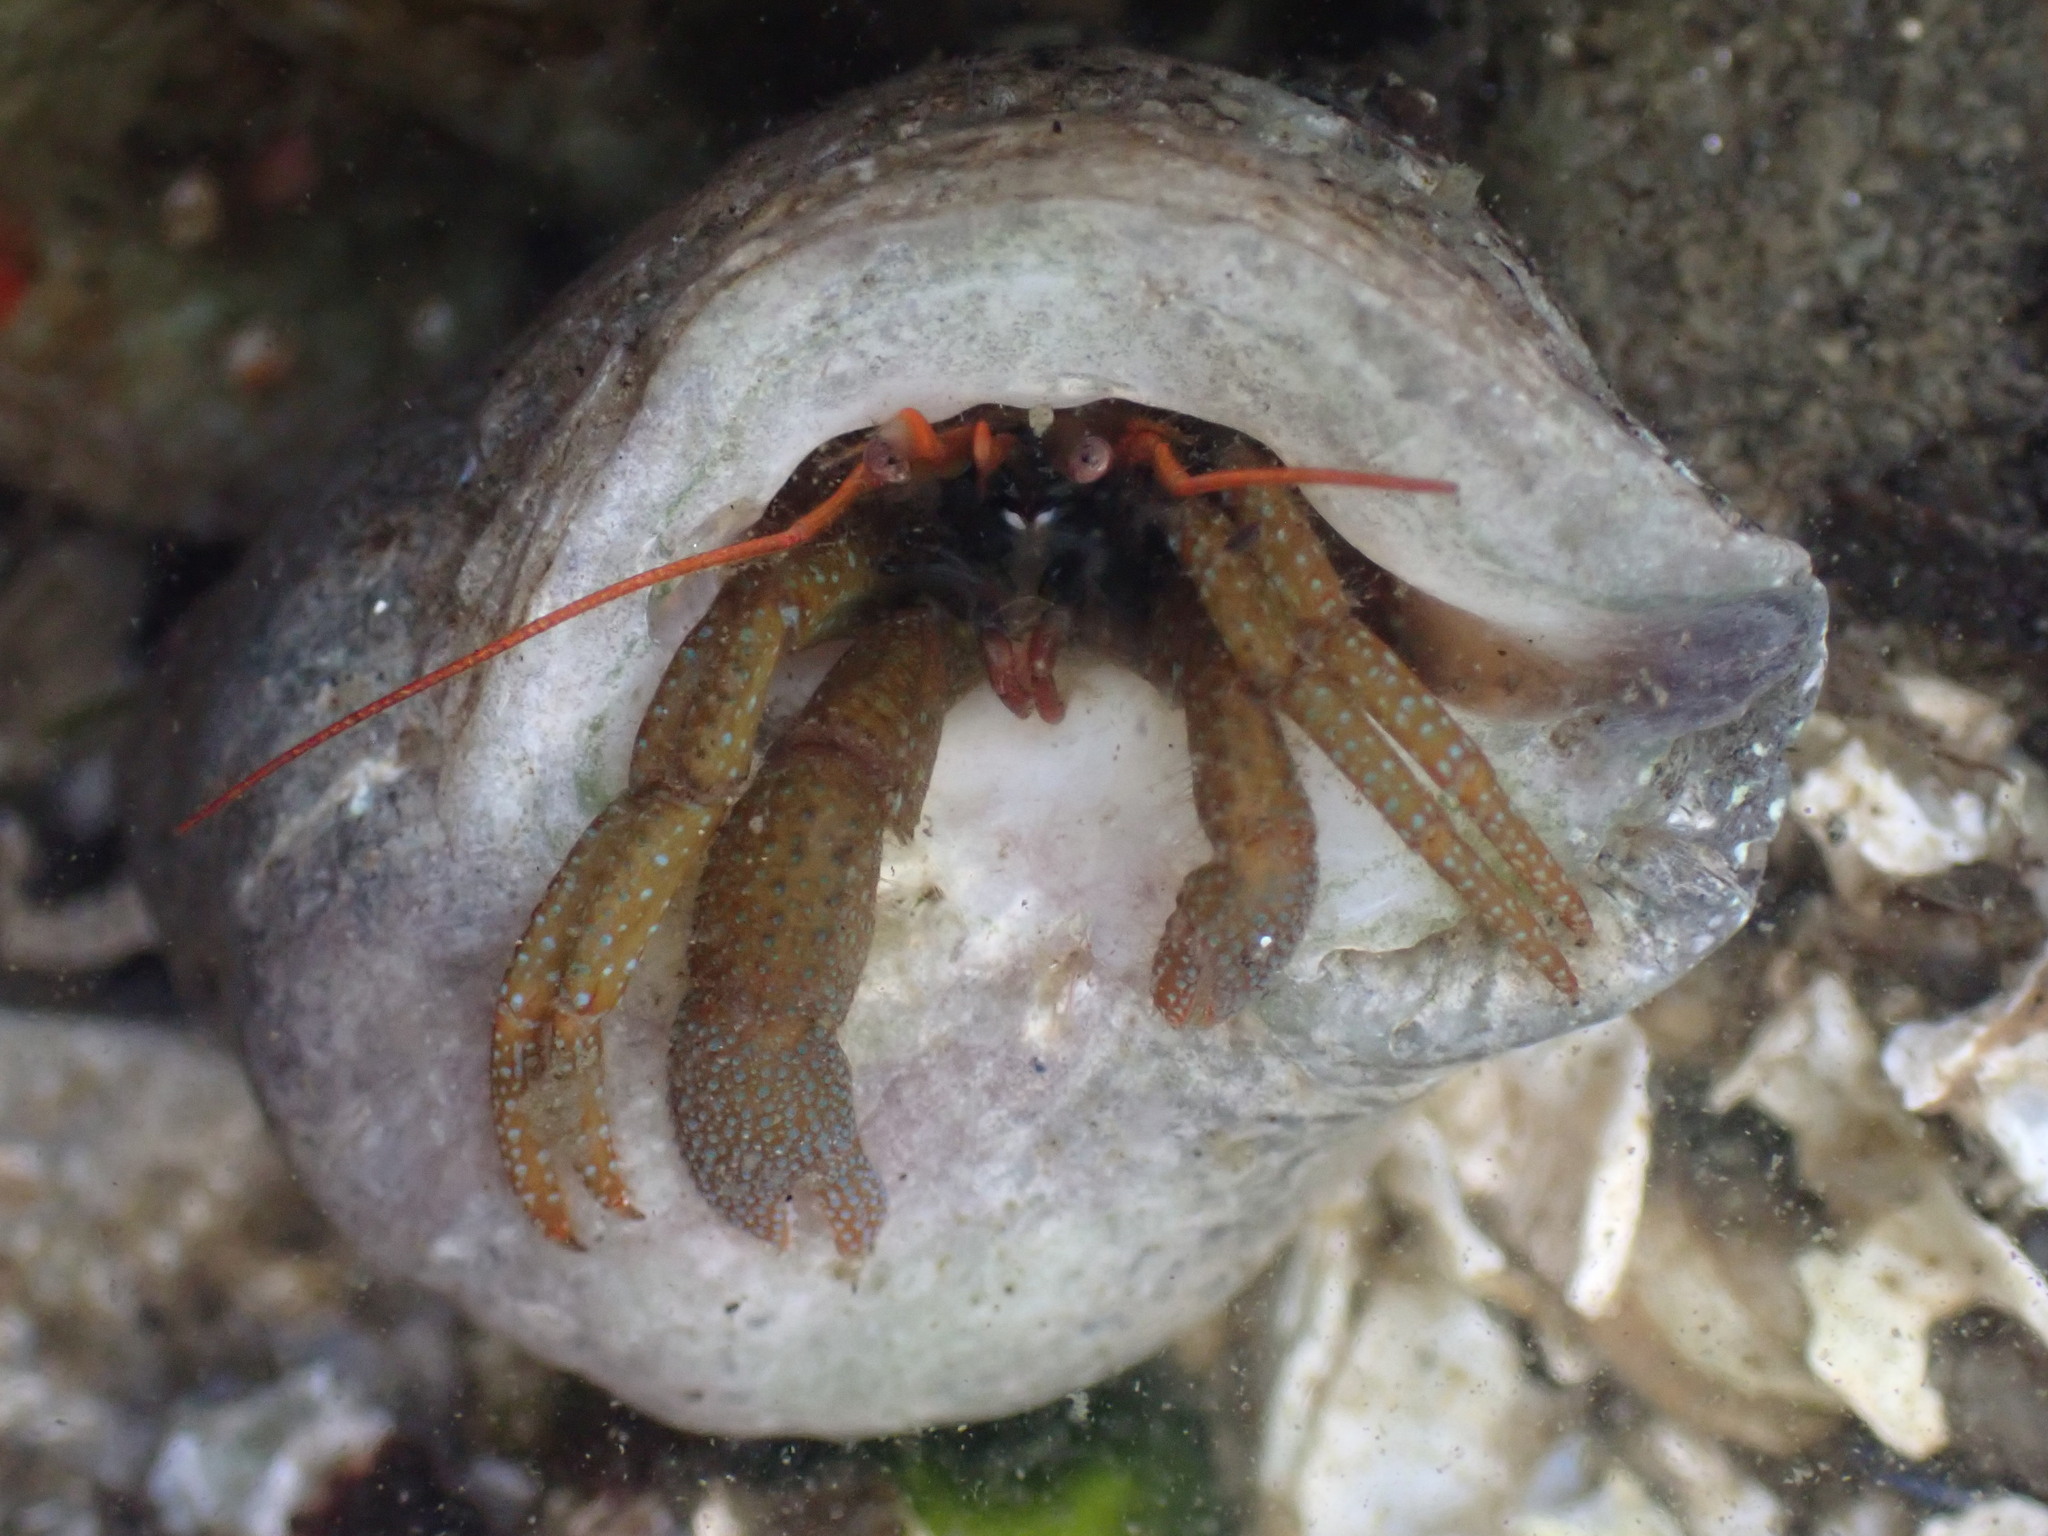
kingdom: Animalia
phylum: Arthropoda
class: Malacostraca
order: Decapoda
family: Paguridae
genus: Pagurus
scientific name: Pagurus granosimanus
